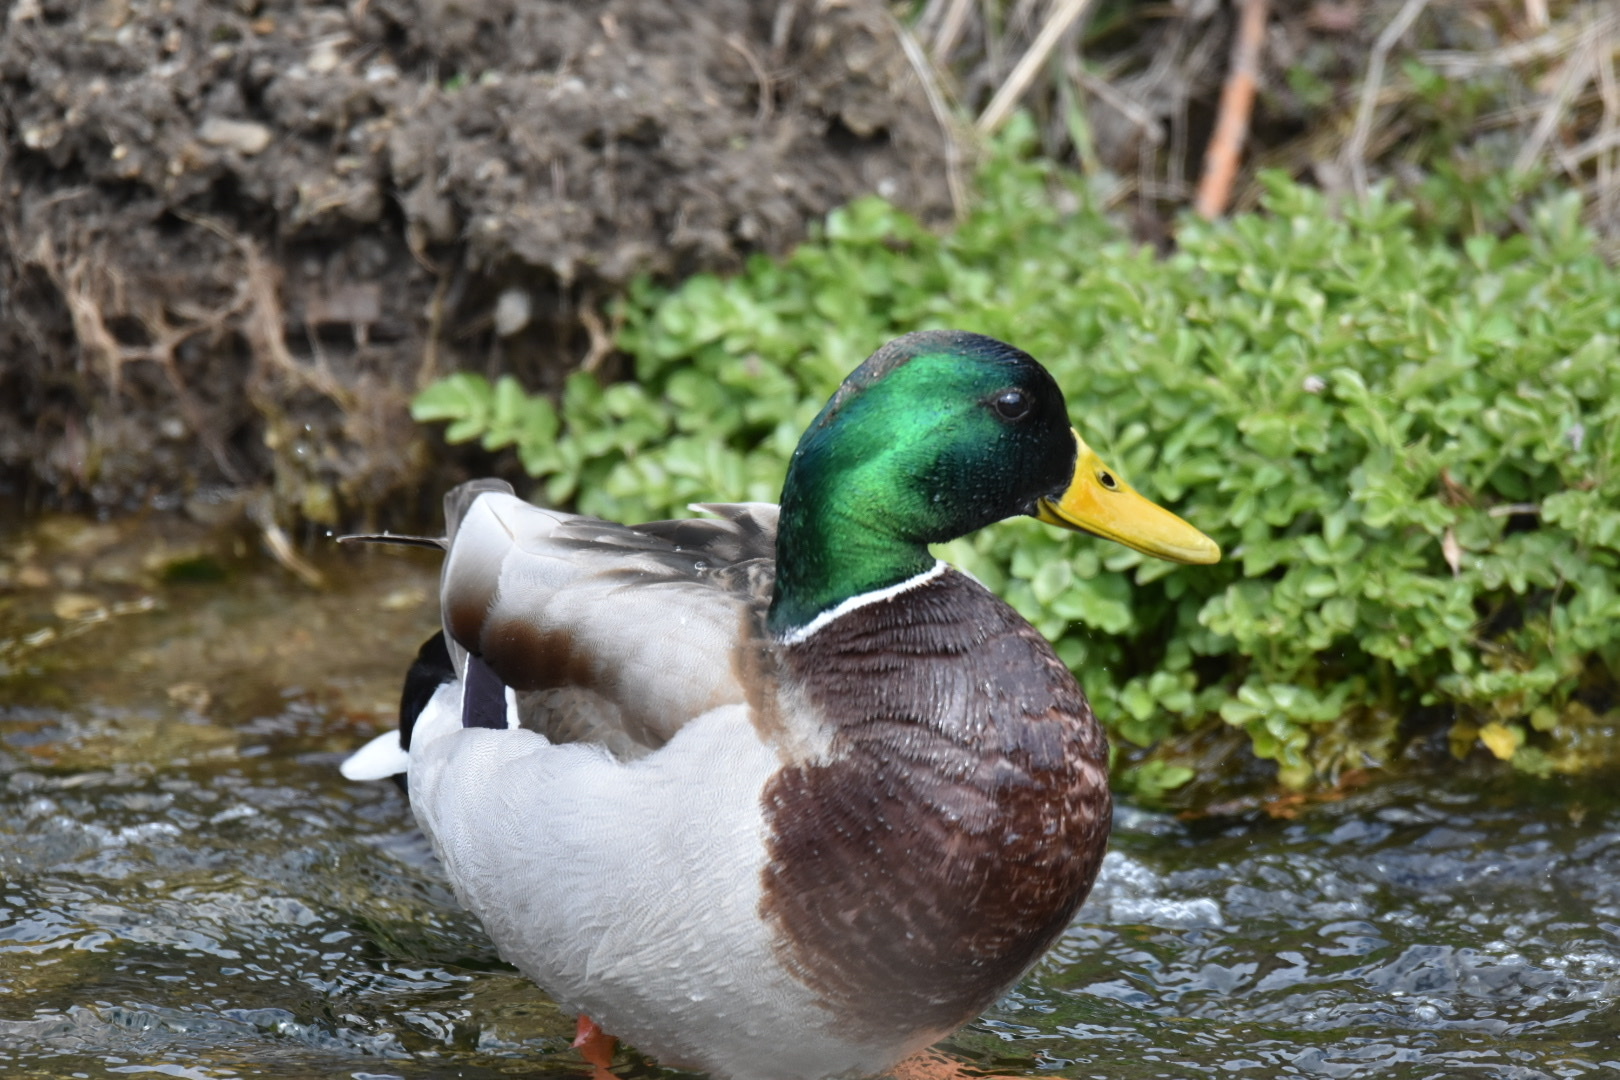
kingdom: Animalia
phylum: Chordata
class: Aves
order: Anseriformes
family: Anatidae
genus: Anas
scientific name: Anas platyrhynchos
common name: Mallard
